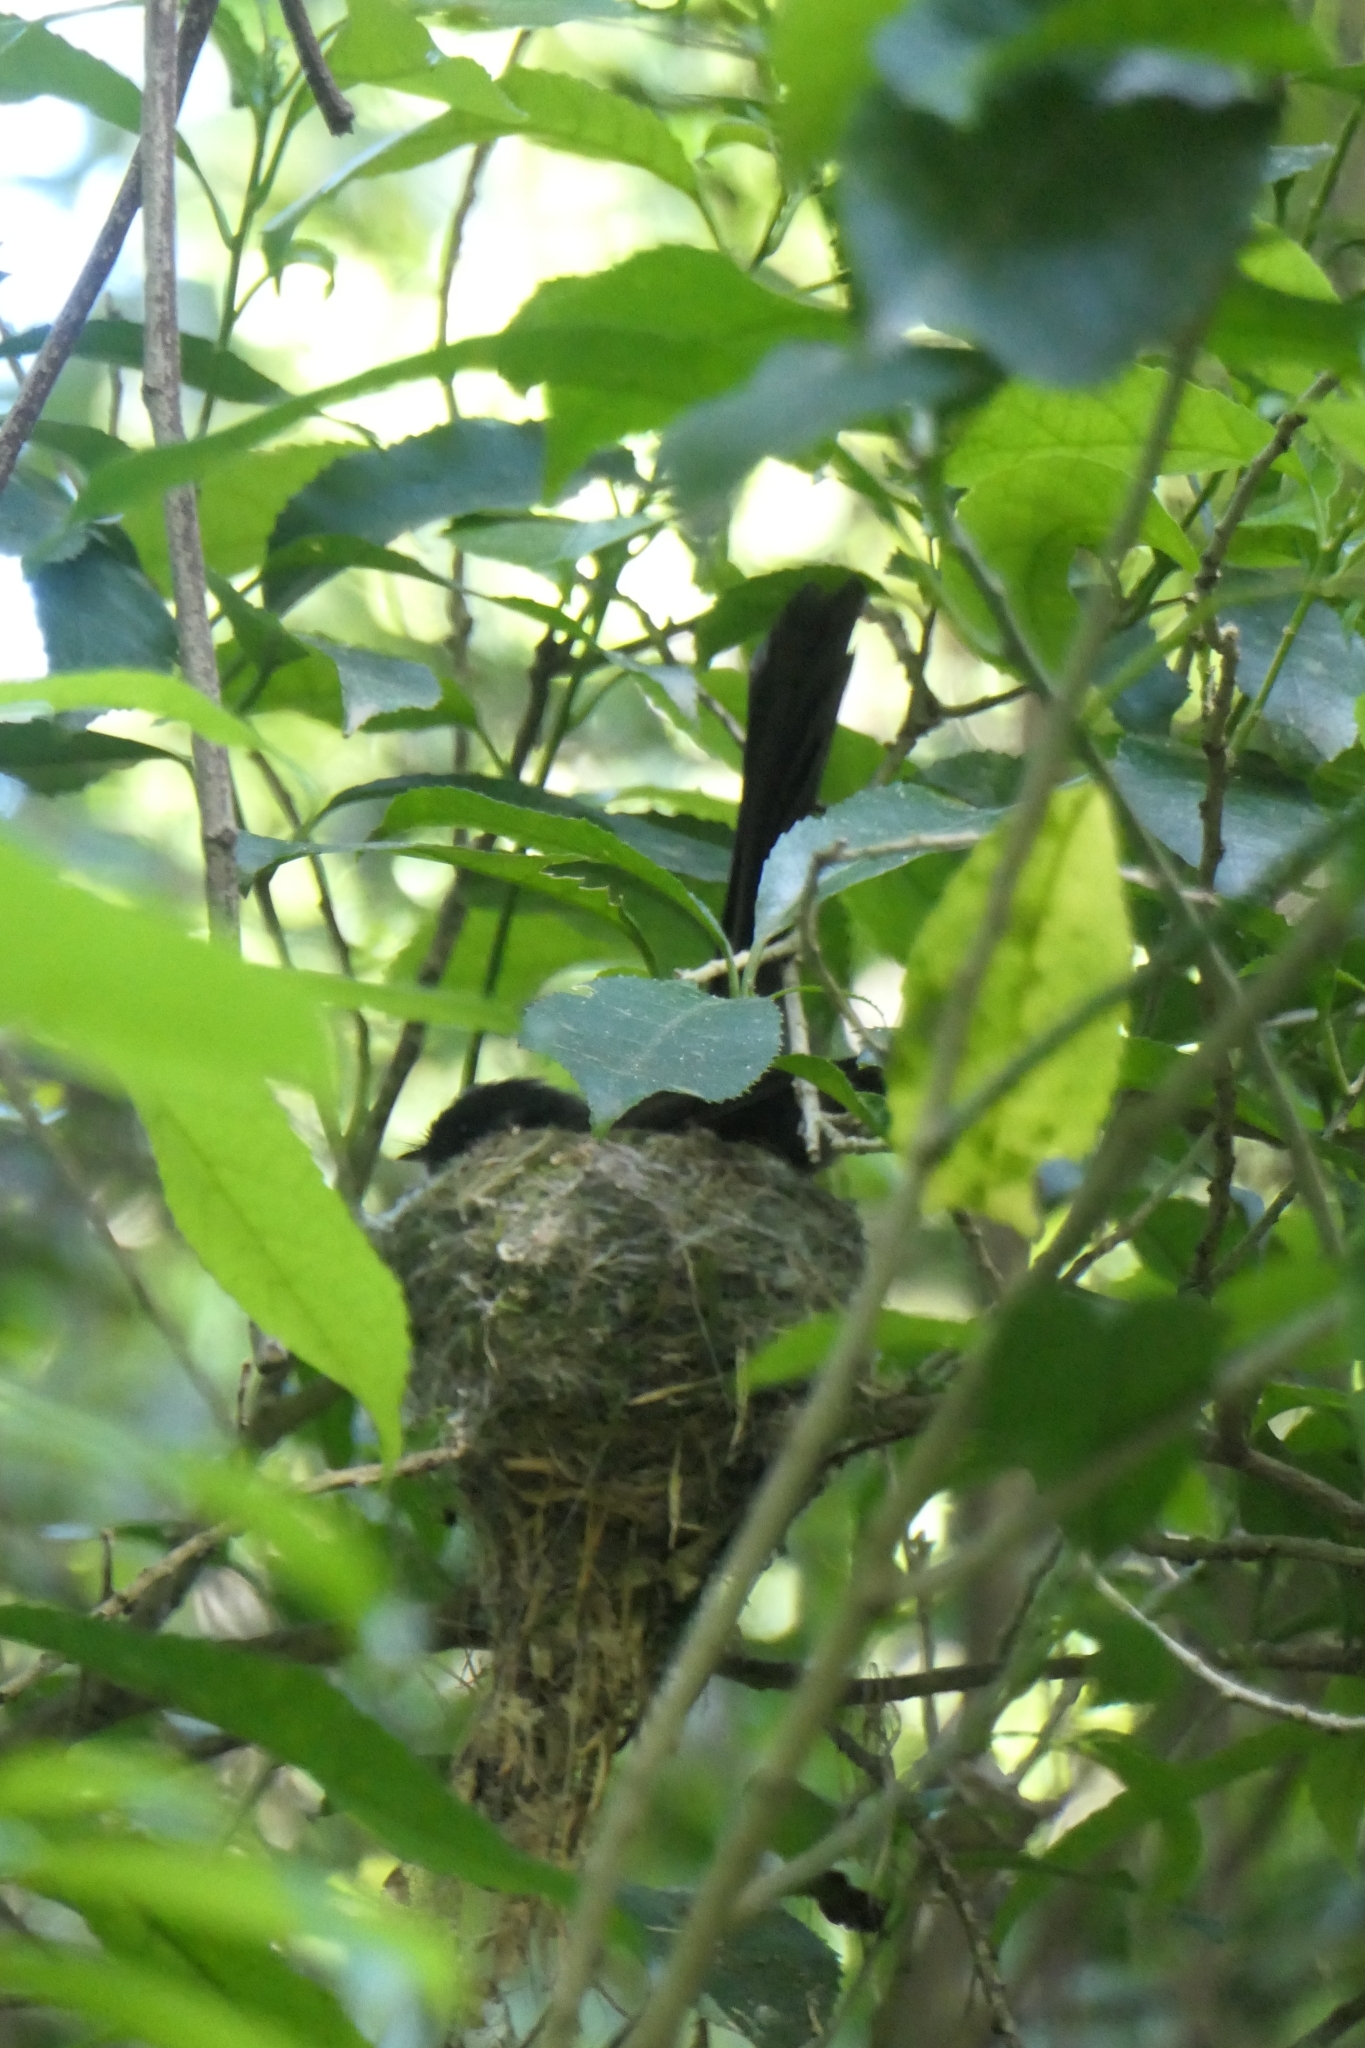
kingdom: Animalia
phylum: Chordata
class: Aves
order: Passeriformes
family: Rhipiduridae
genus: Rhipidura
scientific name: Rhipidura fuliginosa
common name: New zealand fantail
